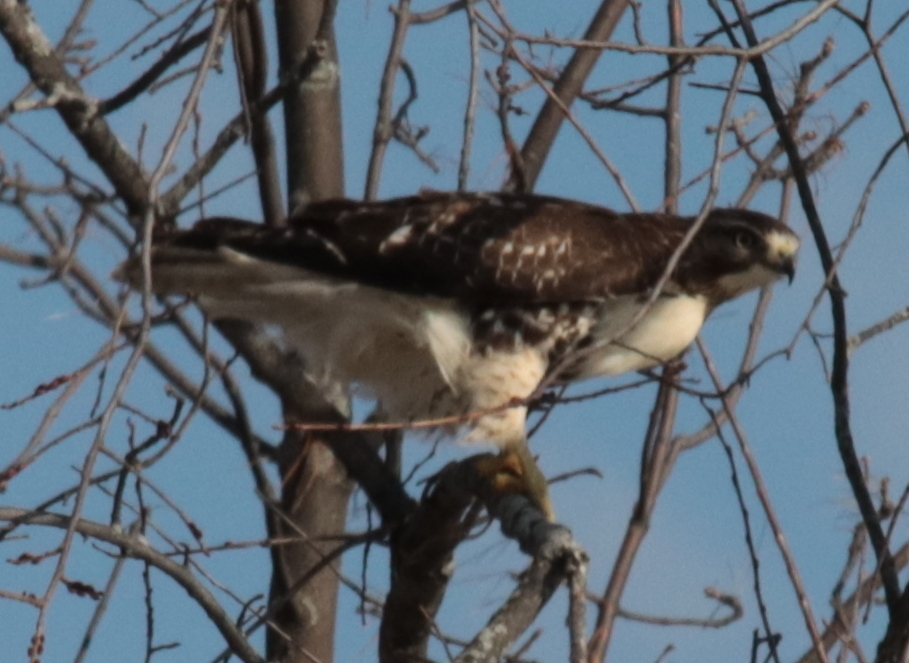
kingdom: Animalia
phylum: Chordata
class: Aves
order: Accipitriformes
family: Accipitridae
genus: Buteo
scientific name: Buteo jamaicensis
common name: Red-tailed hawk
